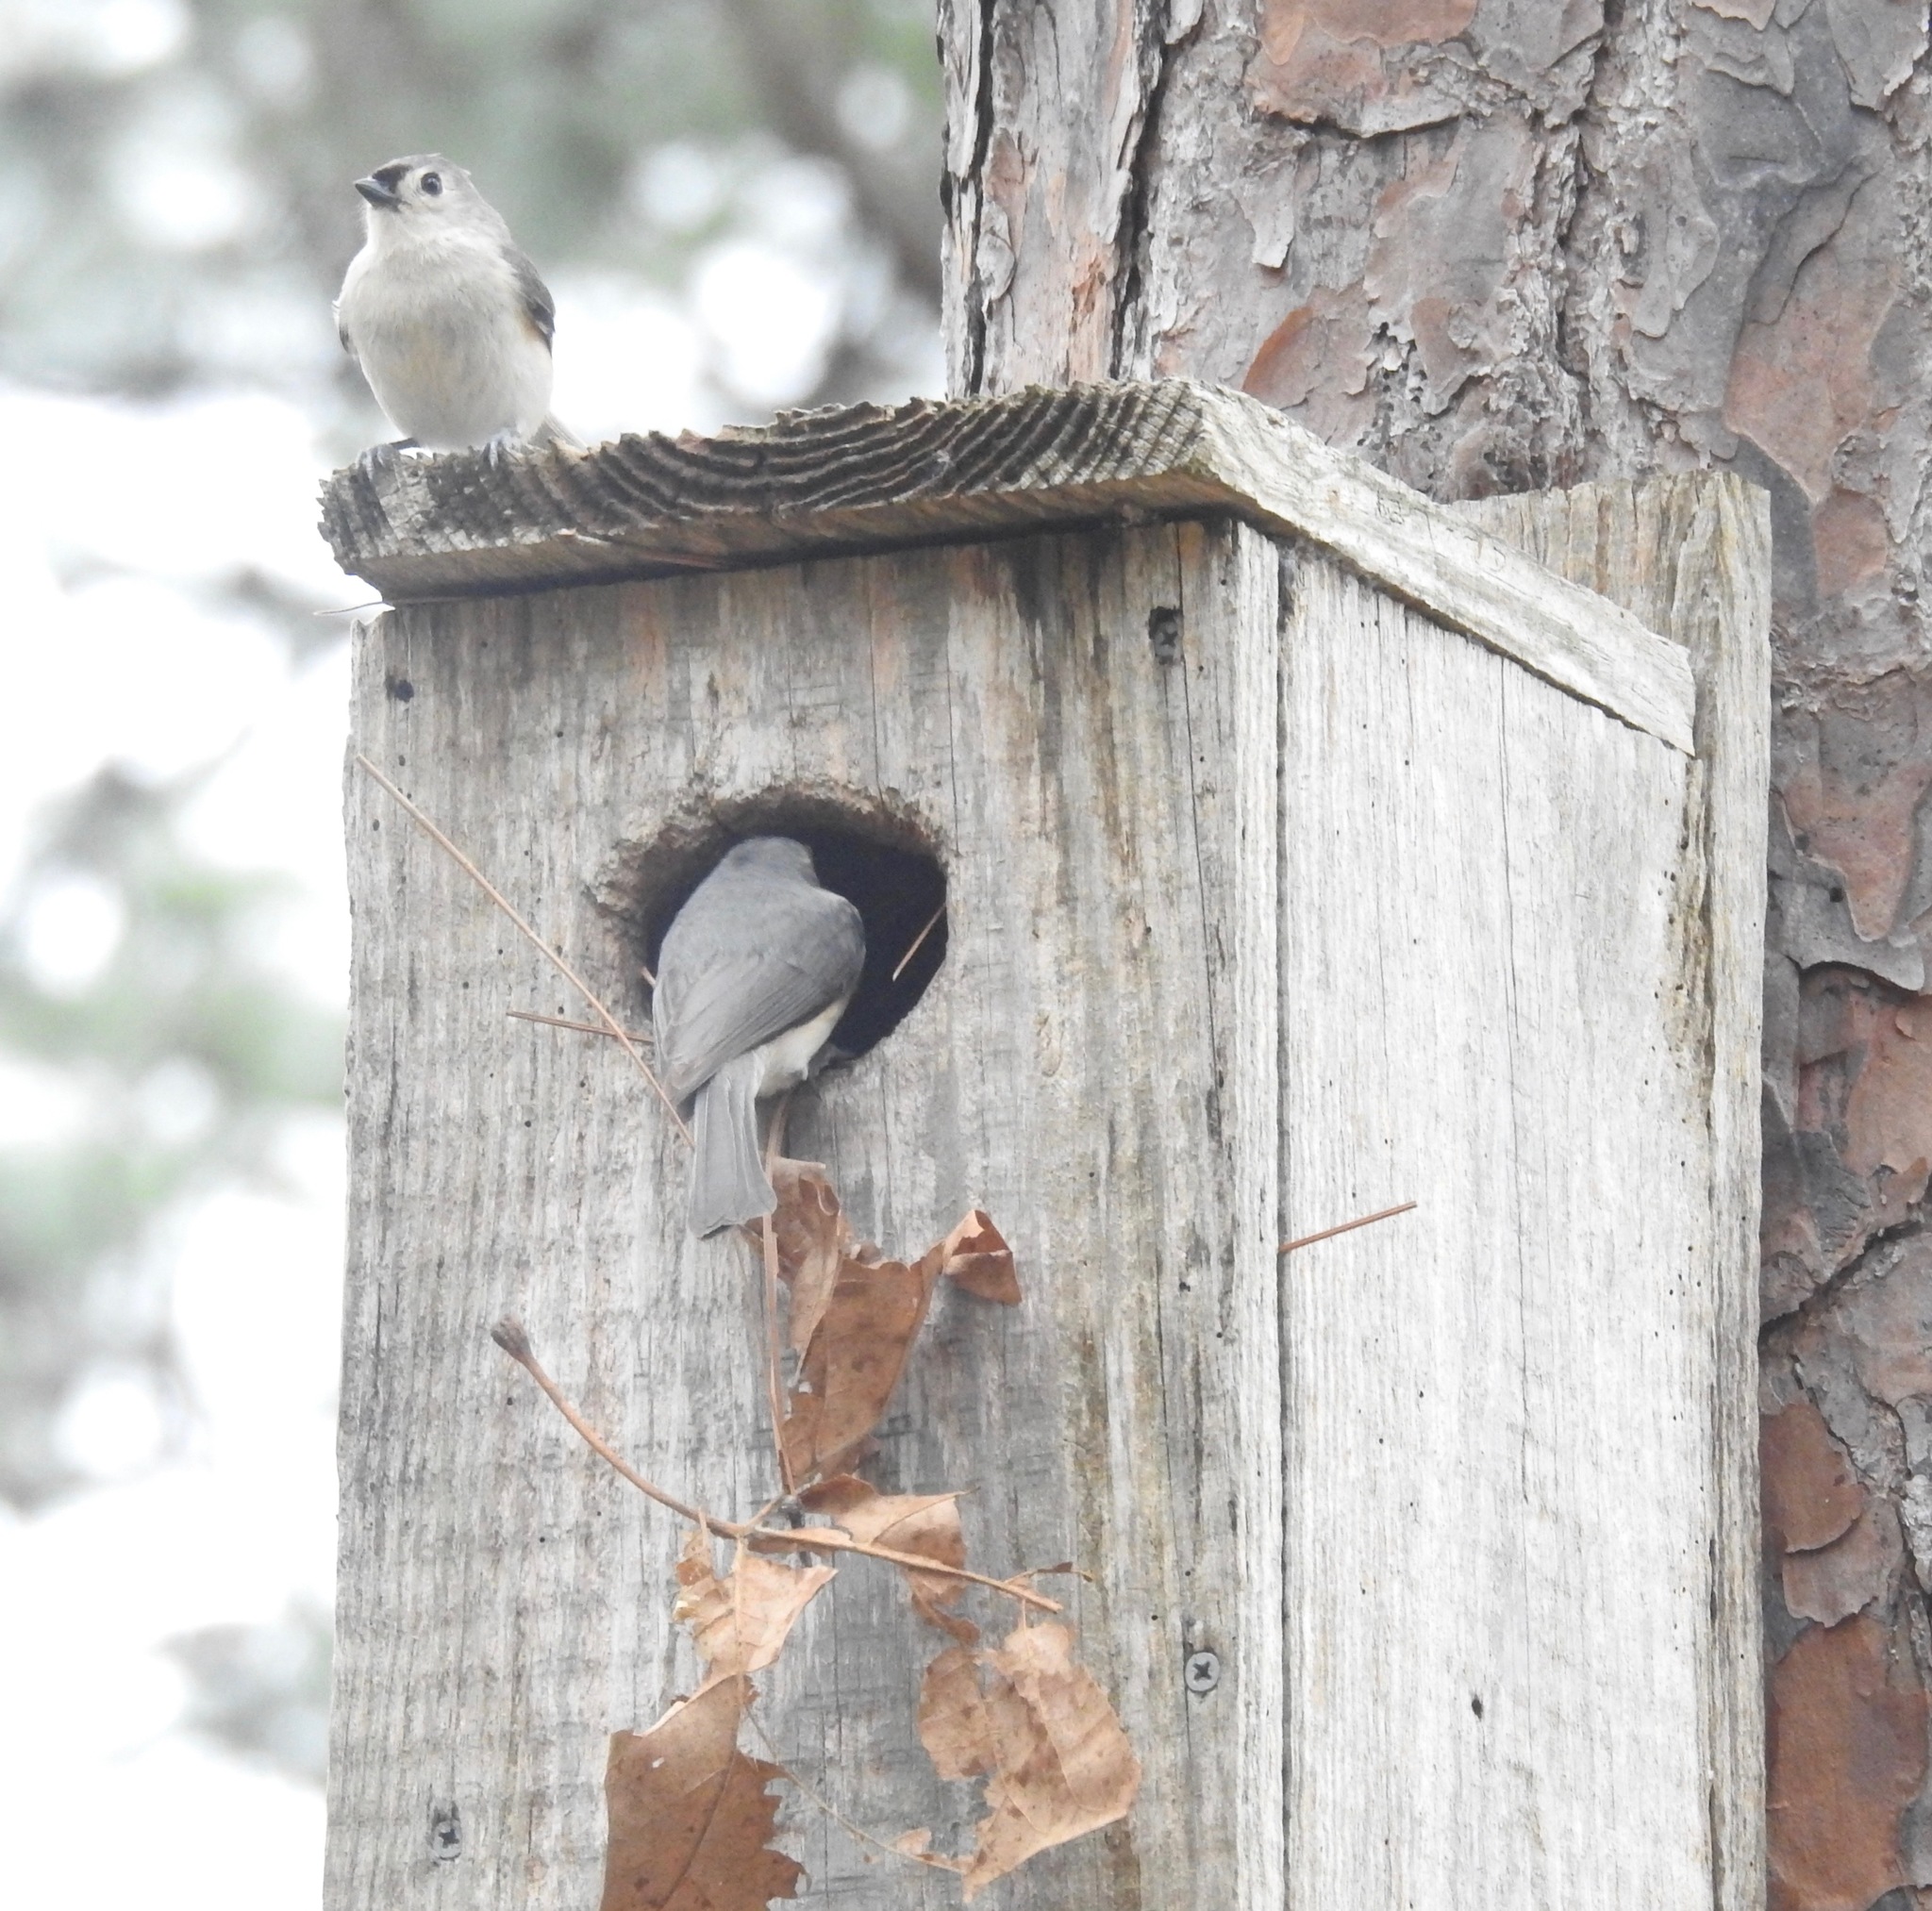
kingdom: Animalia
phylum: Chordata
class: Aves
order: Passeriformes
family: Paridae
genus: Baeolophus
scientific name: Baeolophus bicolor
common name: Tufted titmouse
